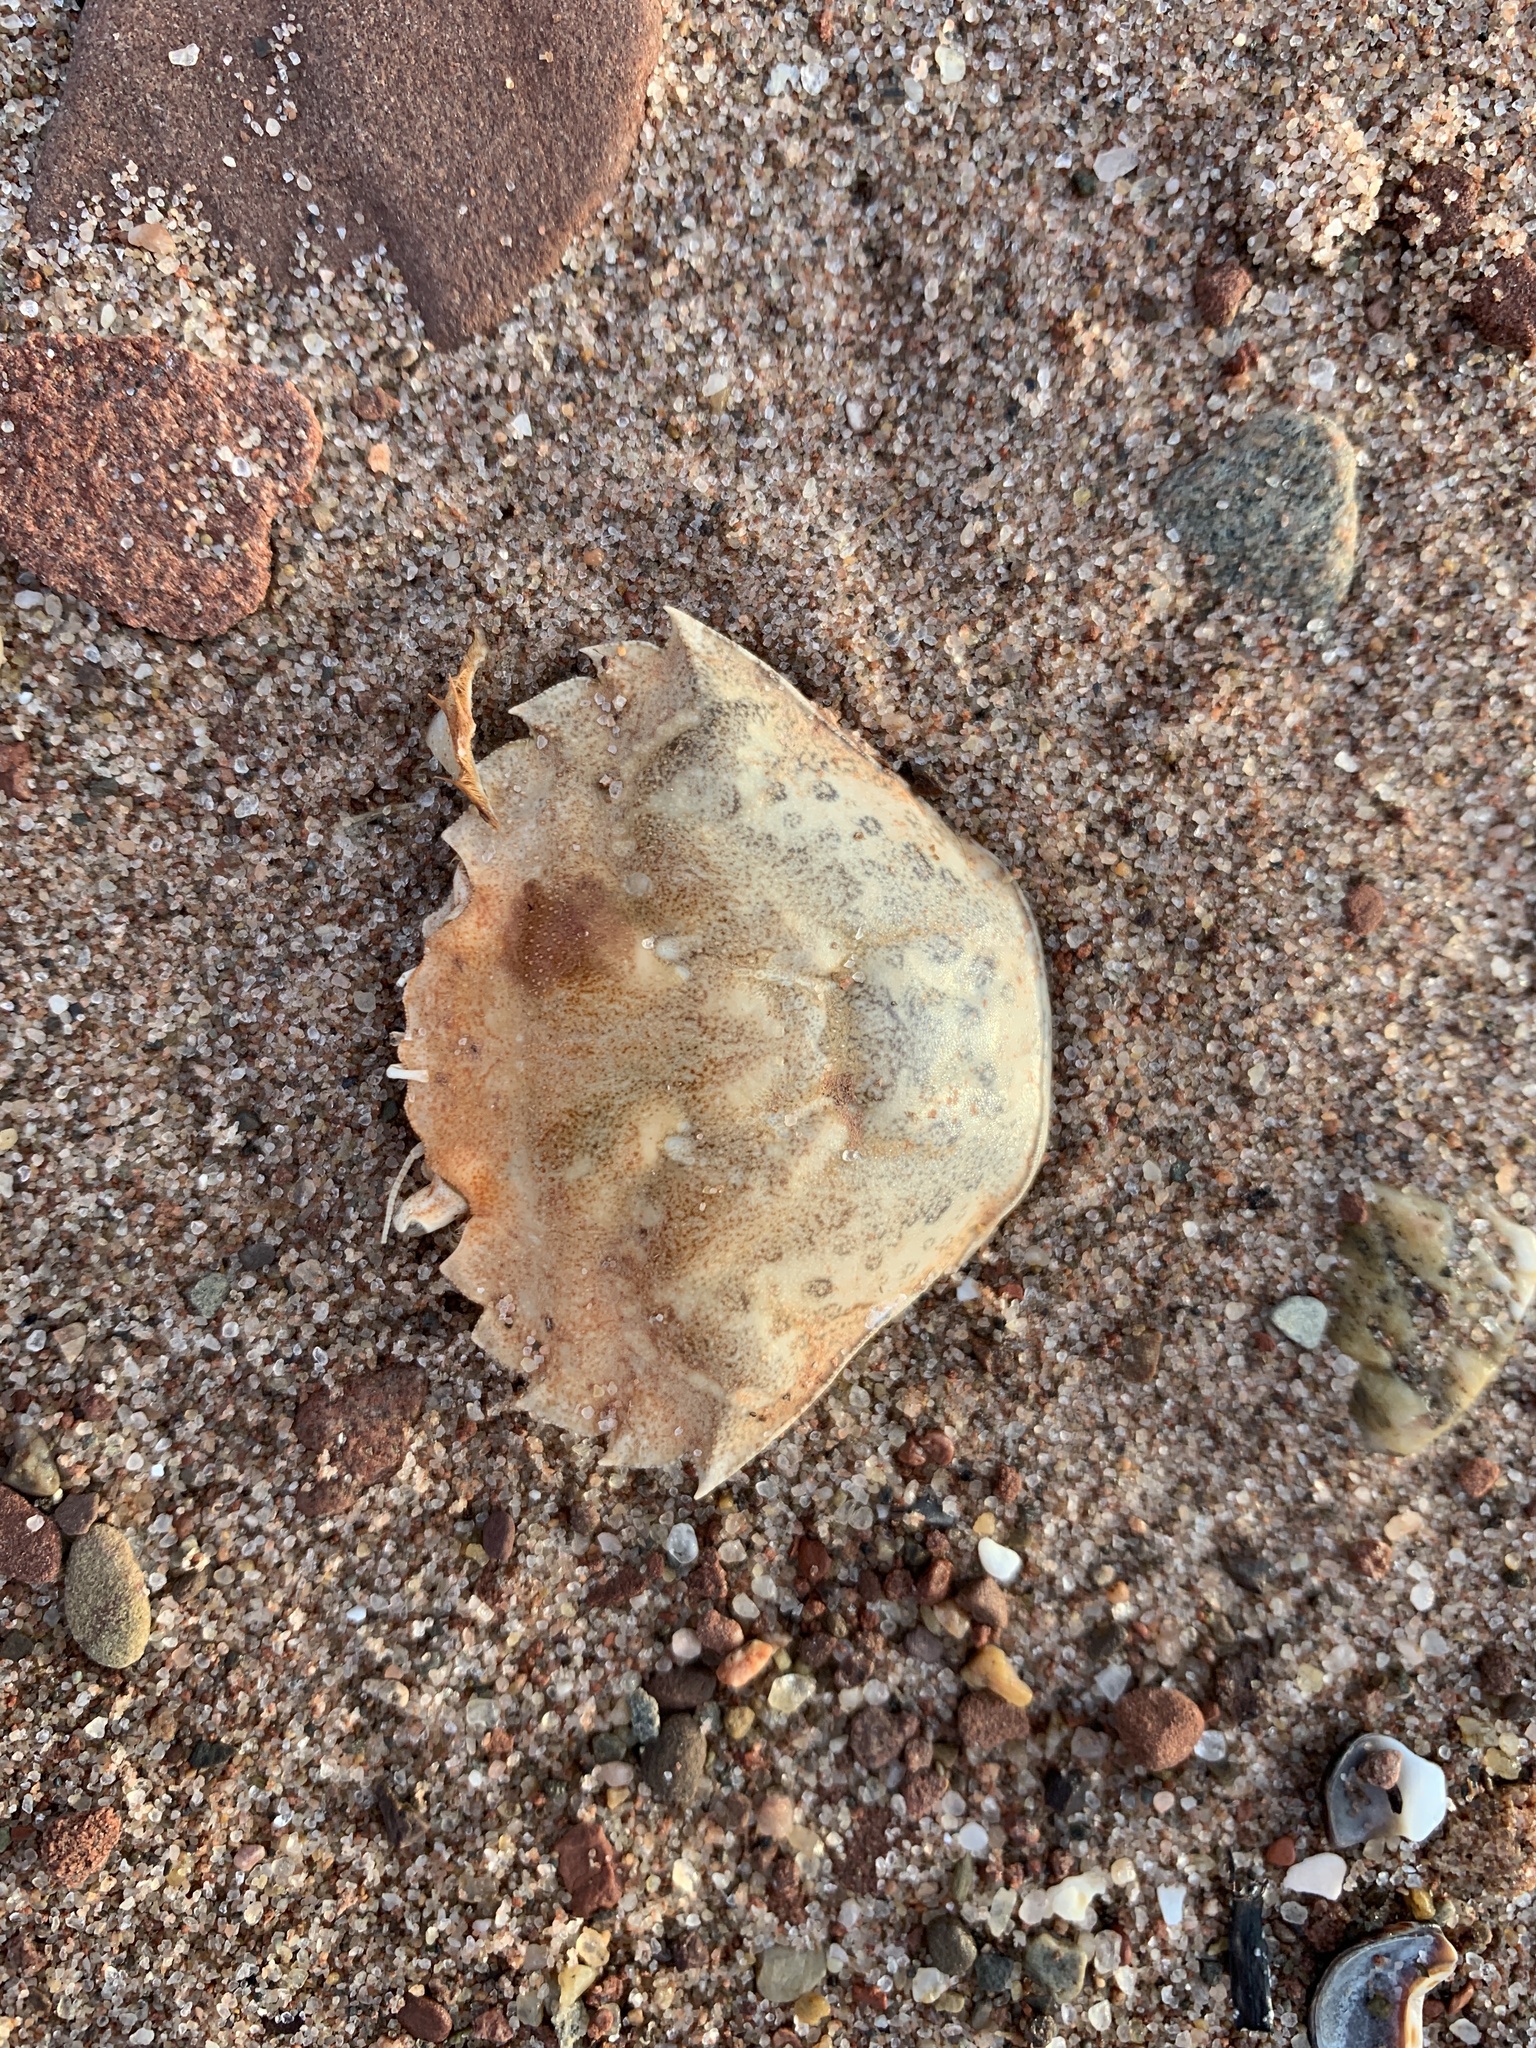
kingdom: Animalia
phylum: Arthropoda
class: Malacostraca
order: Decapoda
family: Carcinidae
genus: Carcinus
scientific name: Carcinus maenas
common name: European green crab
